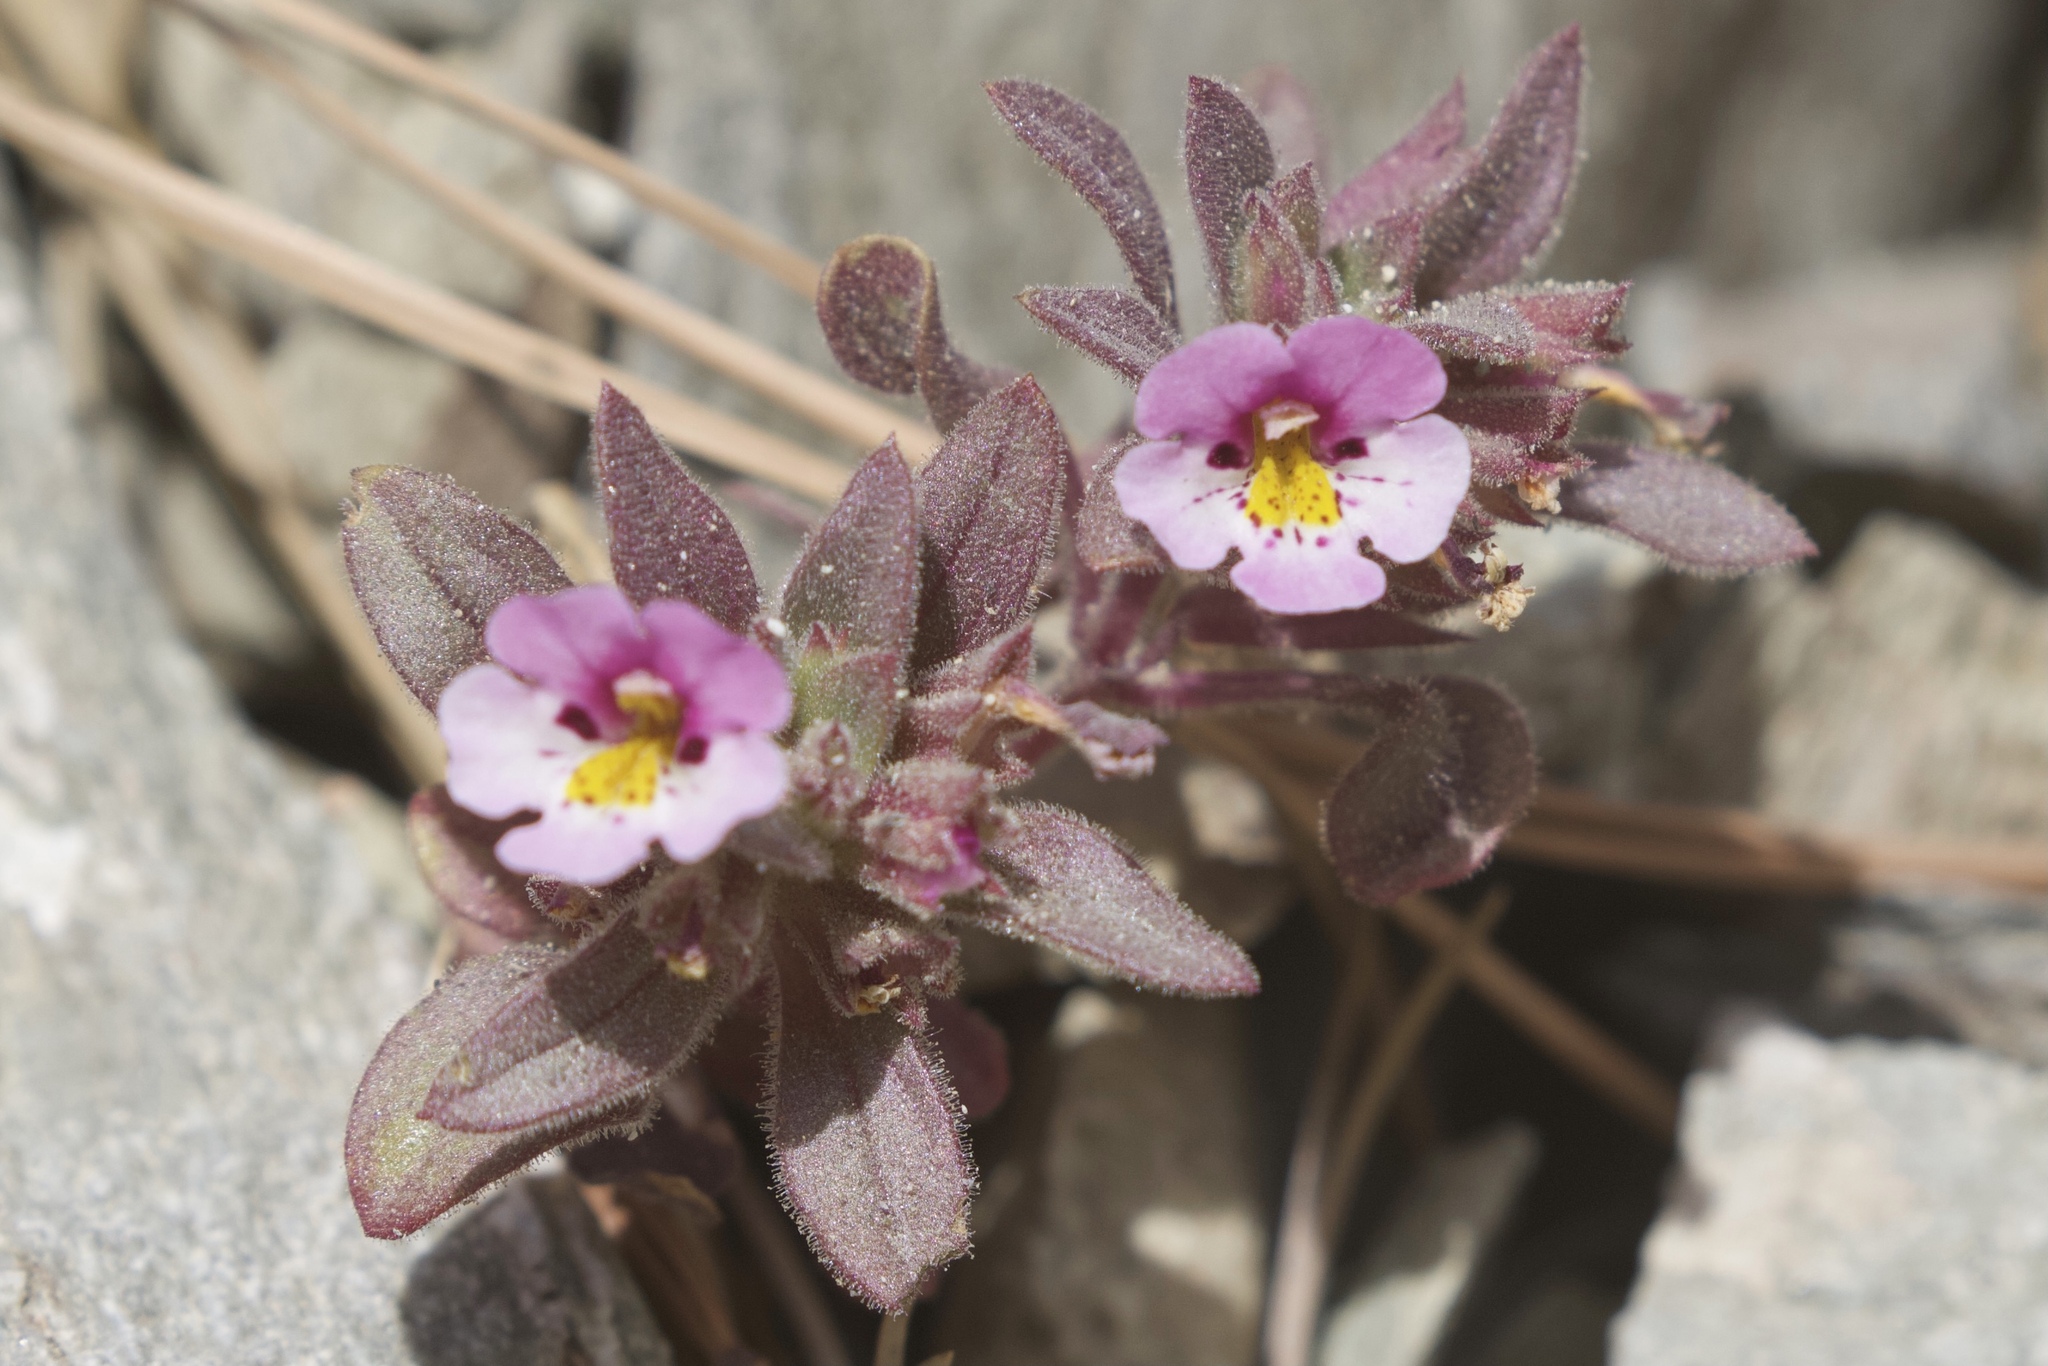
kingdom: Plantae
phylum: Tracheophyta
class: Magnoliopsida
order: Lamiales
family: Phrymaceae
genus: Diplacus
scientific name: Diplacus johnstonii
